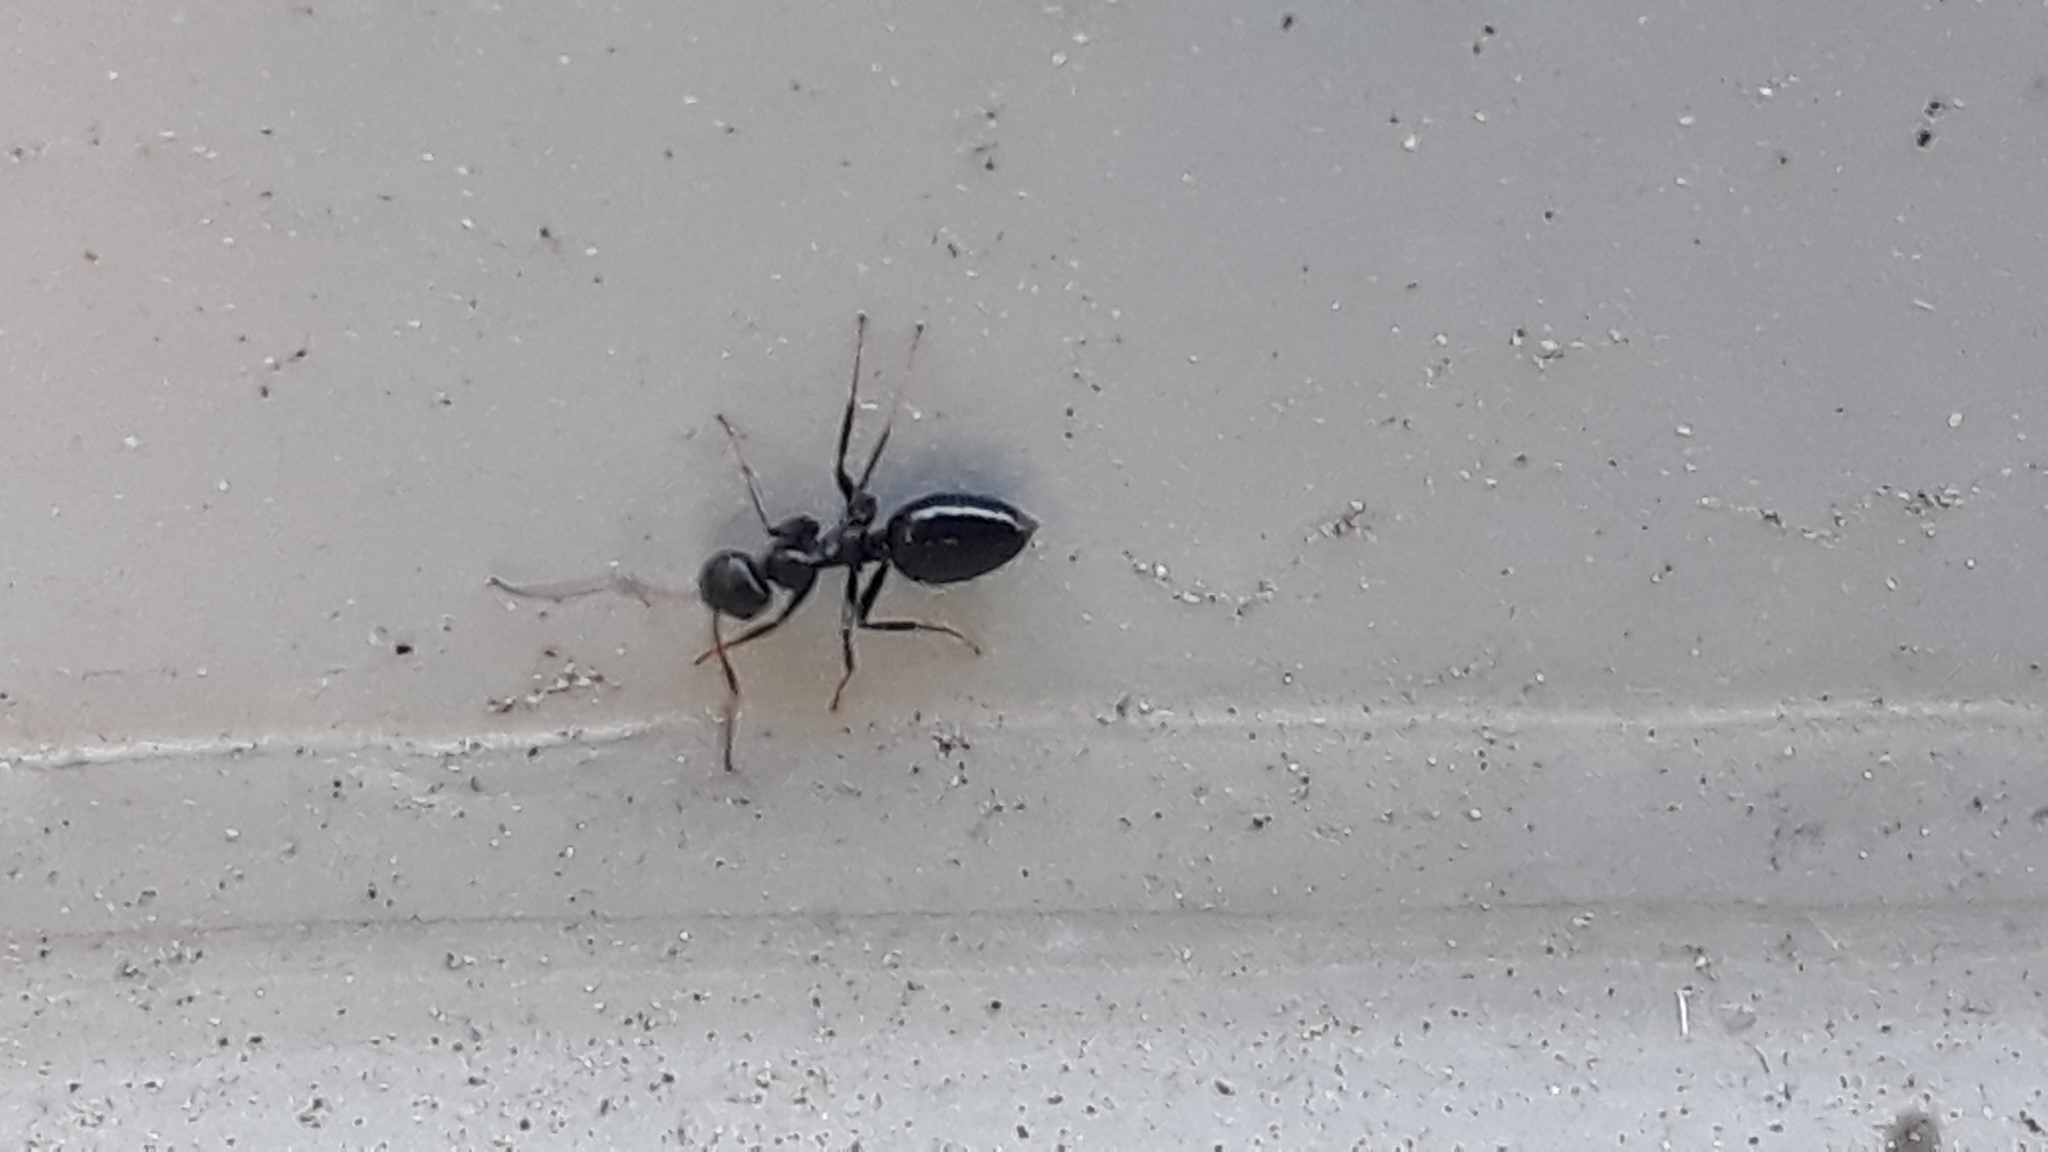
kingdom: Animalia
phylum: Arthropoda
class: Insecta
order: Hymenoptera
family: Formicidae
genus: Lepisiota
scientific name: Lepisiota capensis
